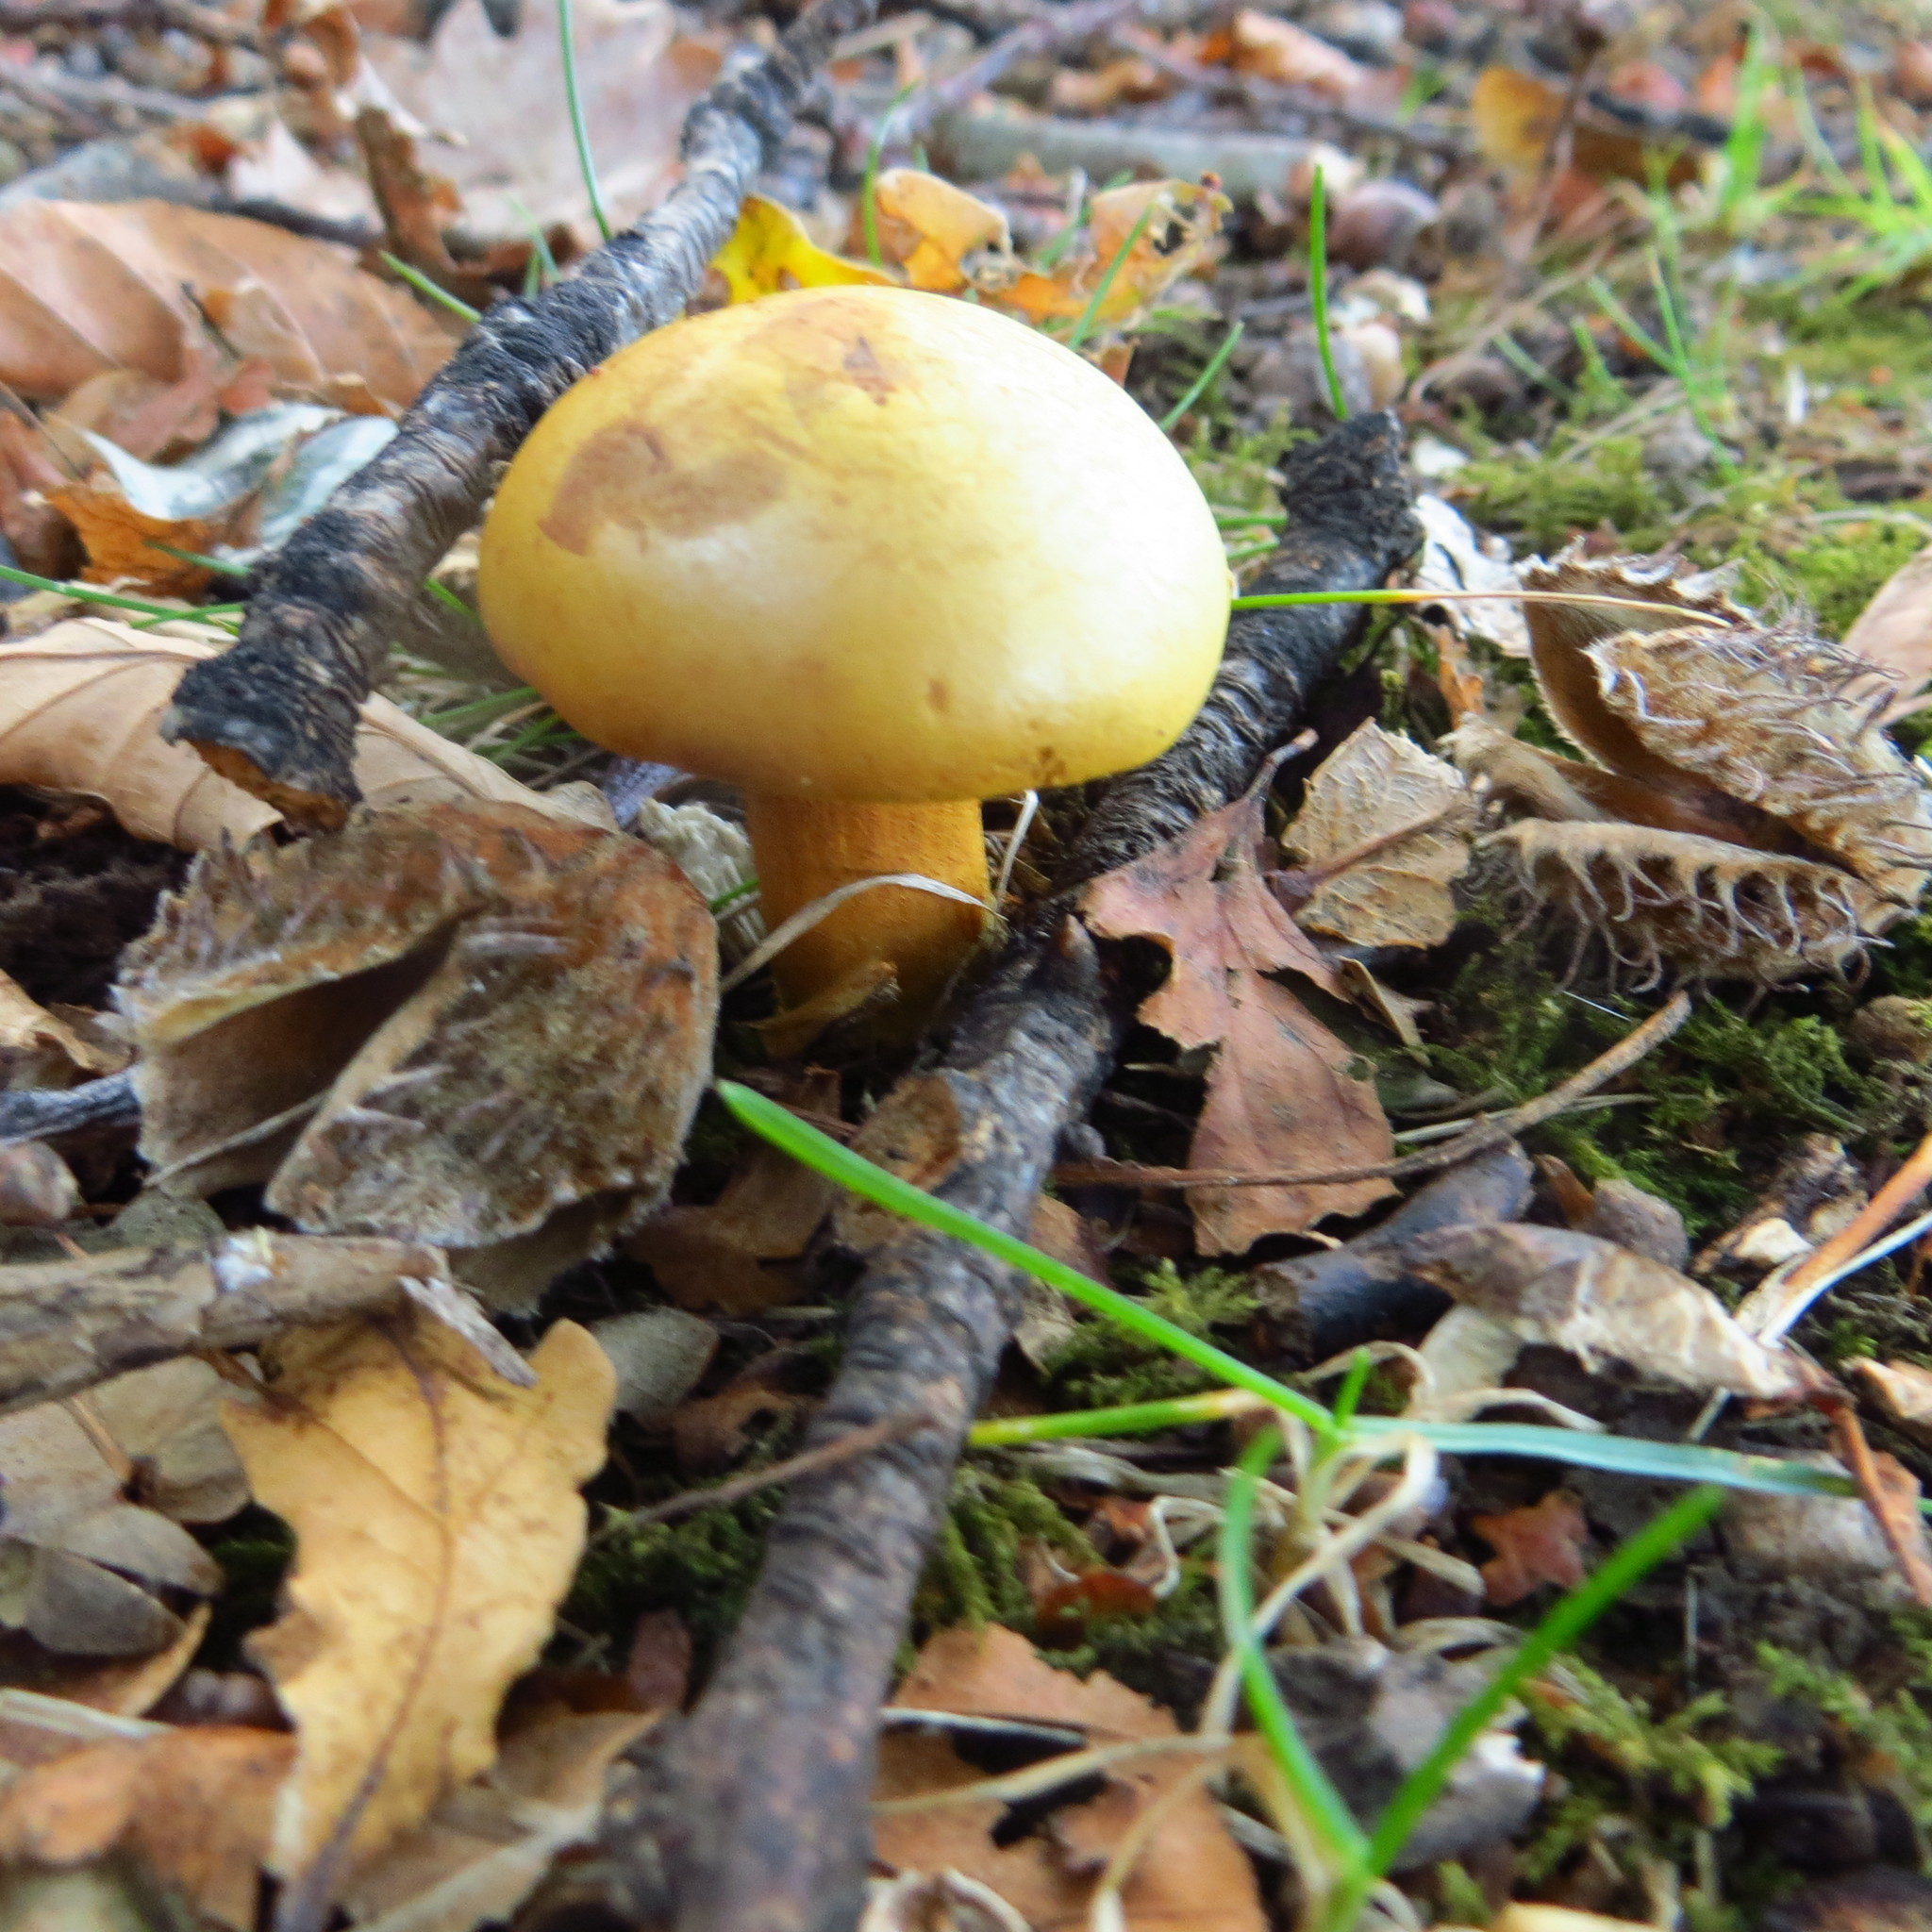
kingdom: Fungi
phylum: Basidiomycota
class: Agaricomycetes
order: Boletales
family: Boletaceae
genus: Chalciporus
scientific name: Chalciporus piperatus
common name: Peppery bolete
